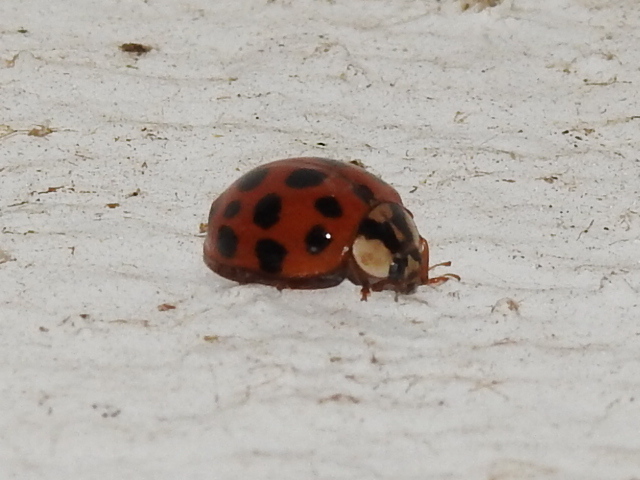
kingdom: Animalia
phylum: Arthropoda
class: Insecta
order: Coleoptera
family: Coccinellidae
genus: Harmonia
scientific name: Harmonia axyridis
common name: Harlequin ladybird
